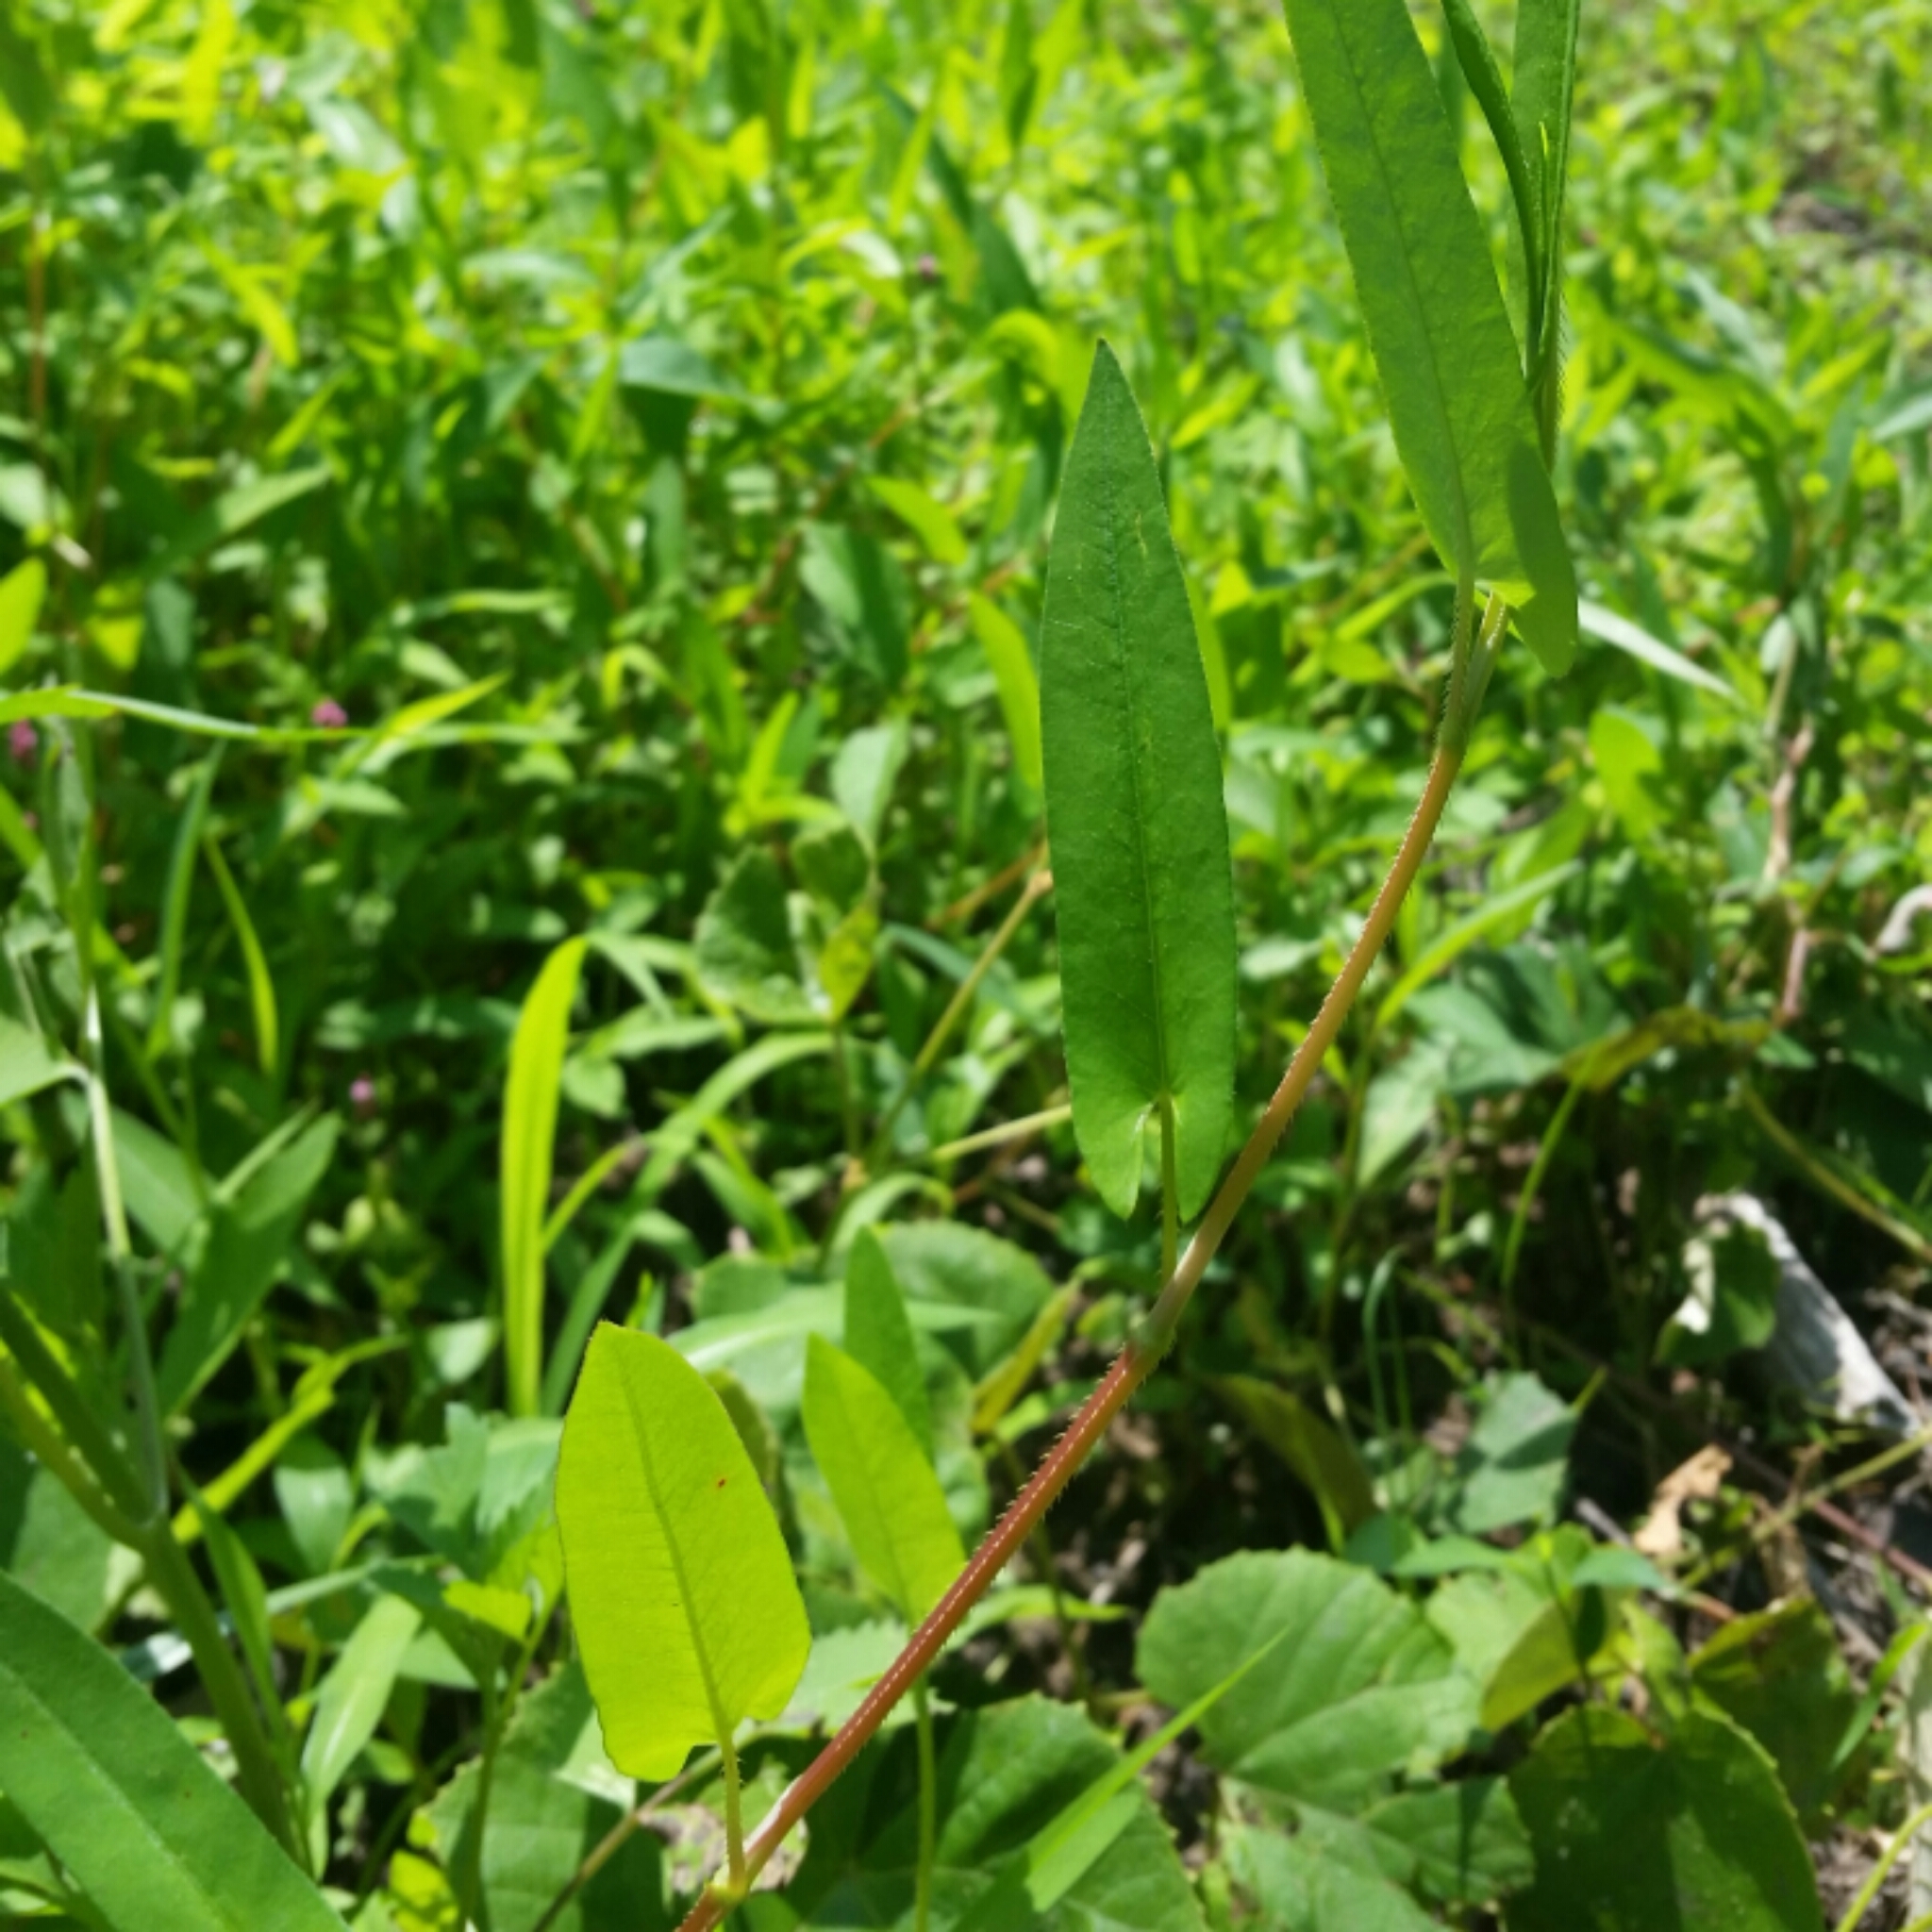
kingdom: Plantae
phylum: Tracheophyta
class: Magnoliopsida
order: Caryophyllales
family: Polygonaceae
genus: Persicaria
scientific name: Persicaria sagittata
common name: American tearthumb
